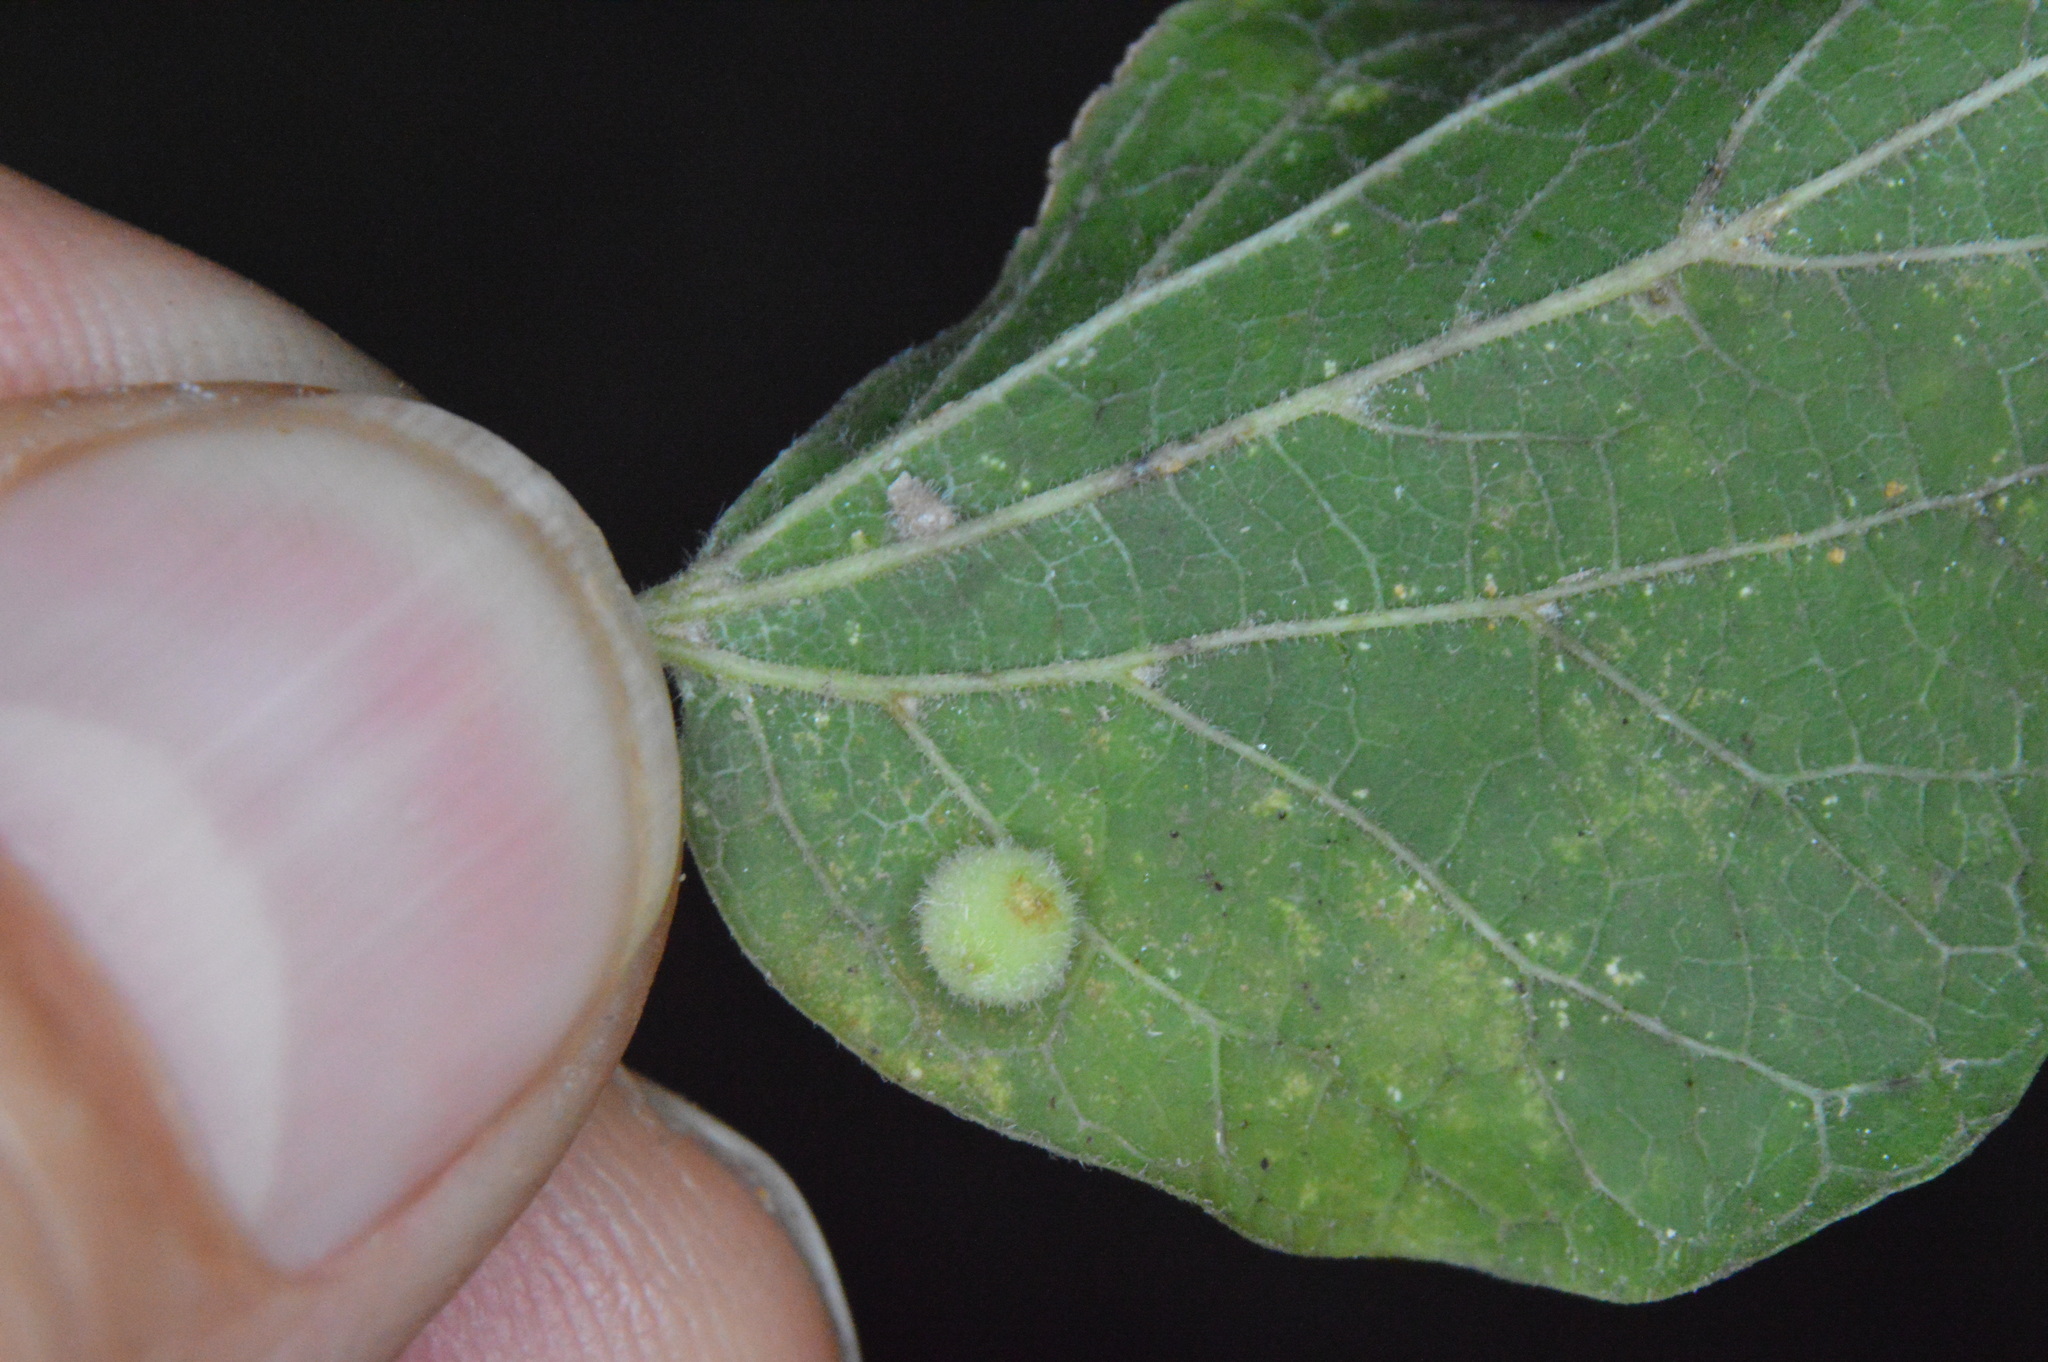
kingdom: Animalia
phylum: Arthropoda
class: Insecta
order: Diptera
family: Cecidomyiidae
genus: Celticecis
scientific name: Celticecis globosa
